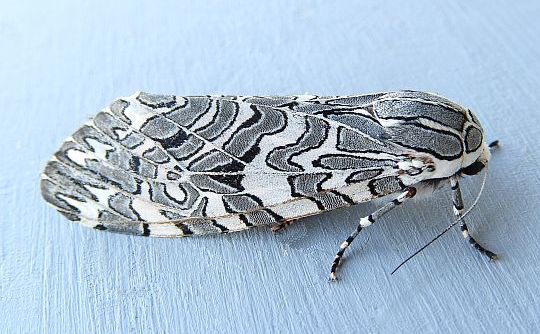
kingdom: Animalia
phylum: Arthropoda
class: Insecta
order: Lepidoptera
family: Erebidae
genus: Arachnis
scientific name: Arachnis picta
